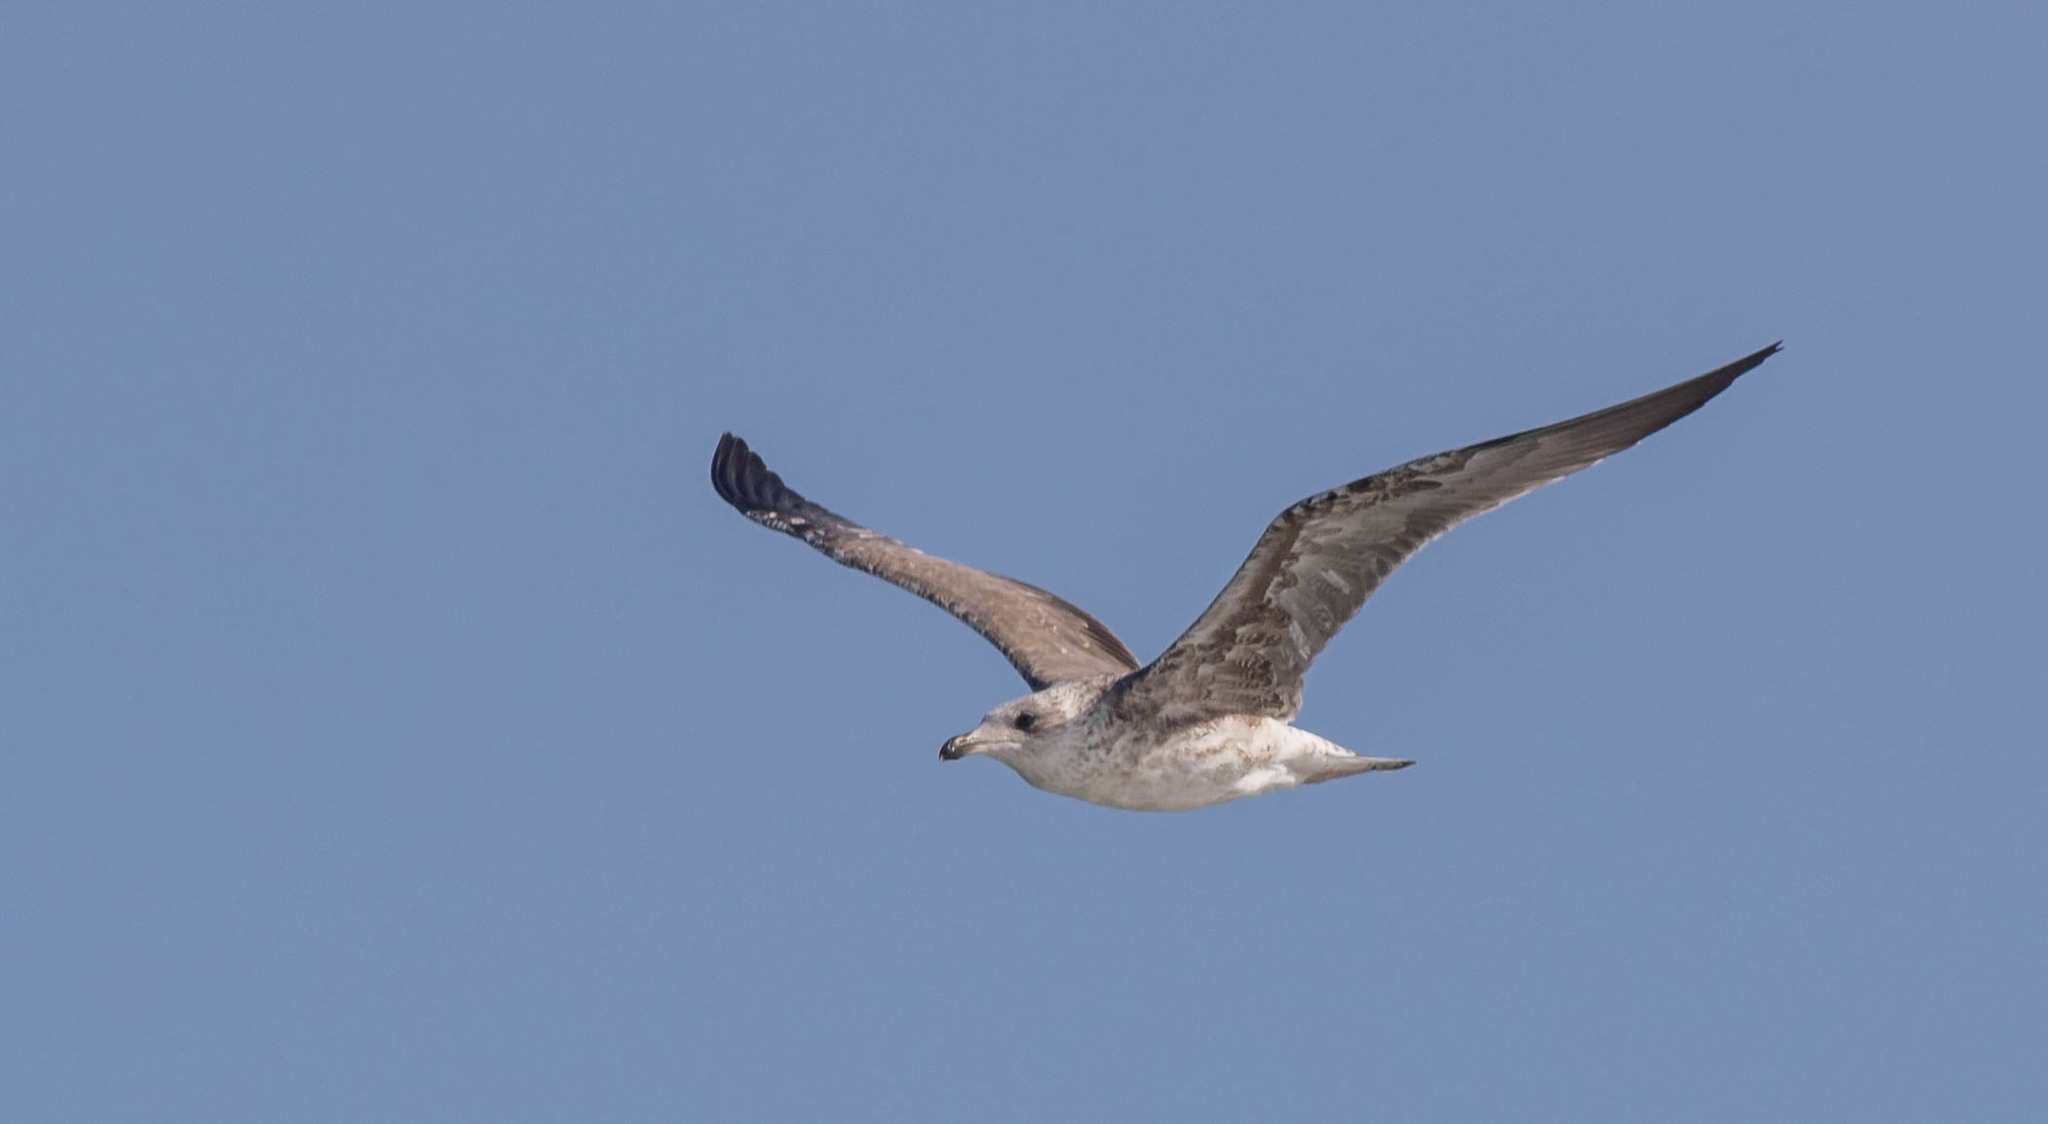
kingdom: Animalia
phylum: Chordata
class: Aves
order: Charadriiformes
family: Laridae
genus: Larus
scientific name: Larus delawarensis
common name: Ring-billed gull
